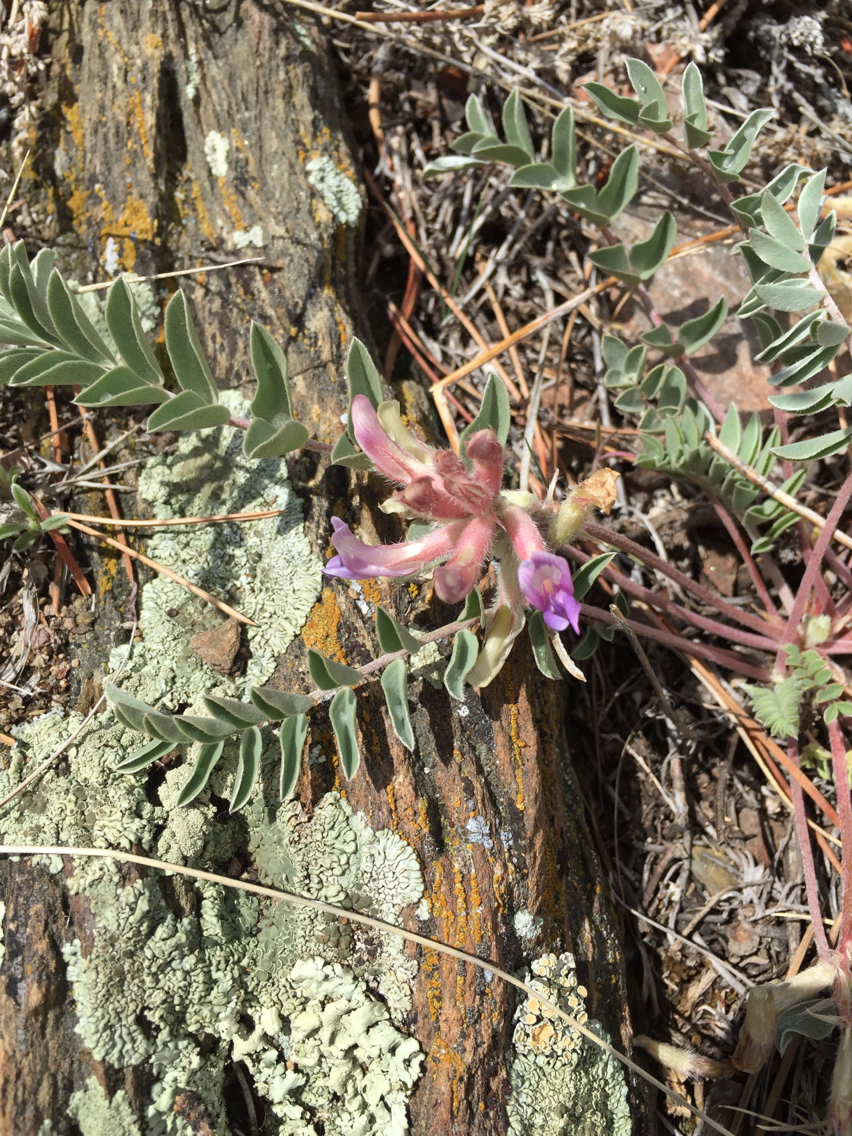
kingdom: Plantae
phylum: Tracheophyta
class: Magnoliopsida
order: Fabales
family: Fabaceae
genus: Astragalus
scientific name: Astragalus shortianus
